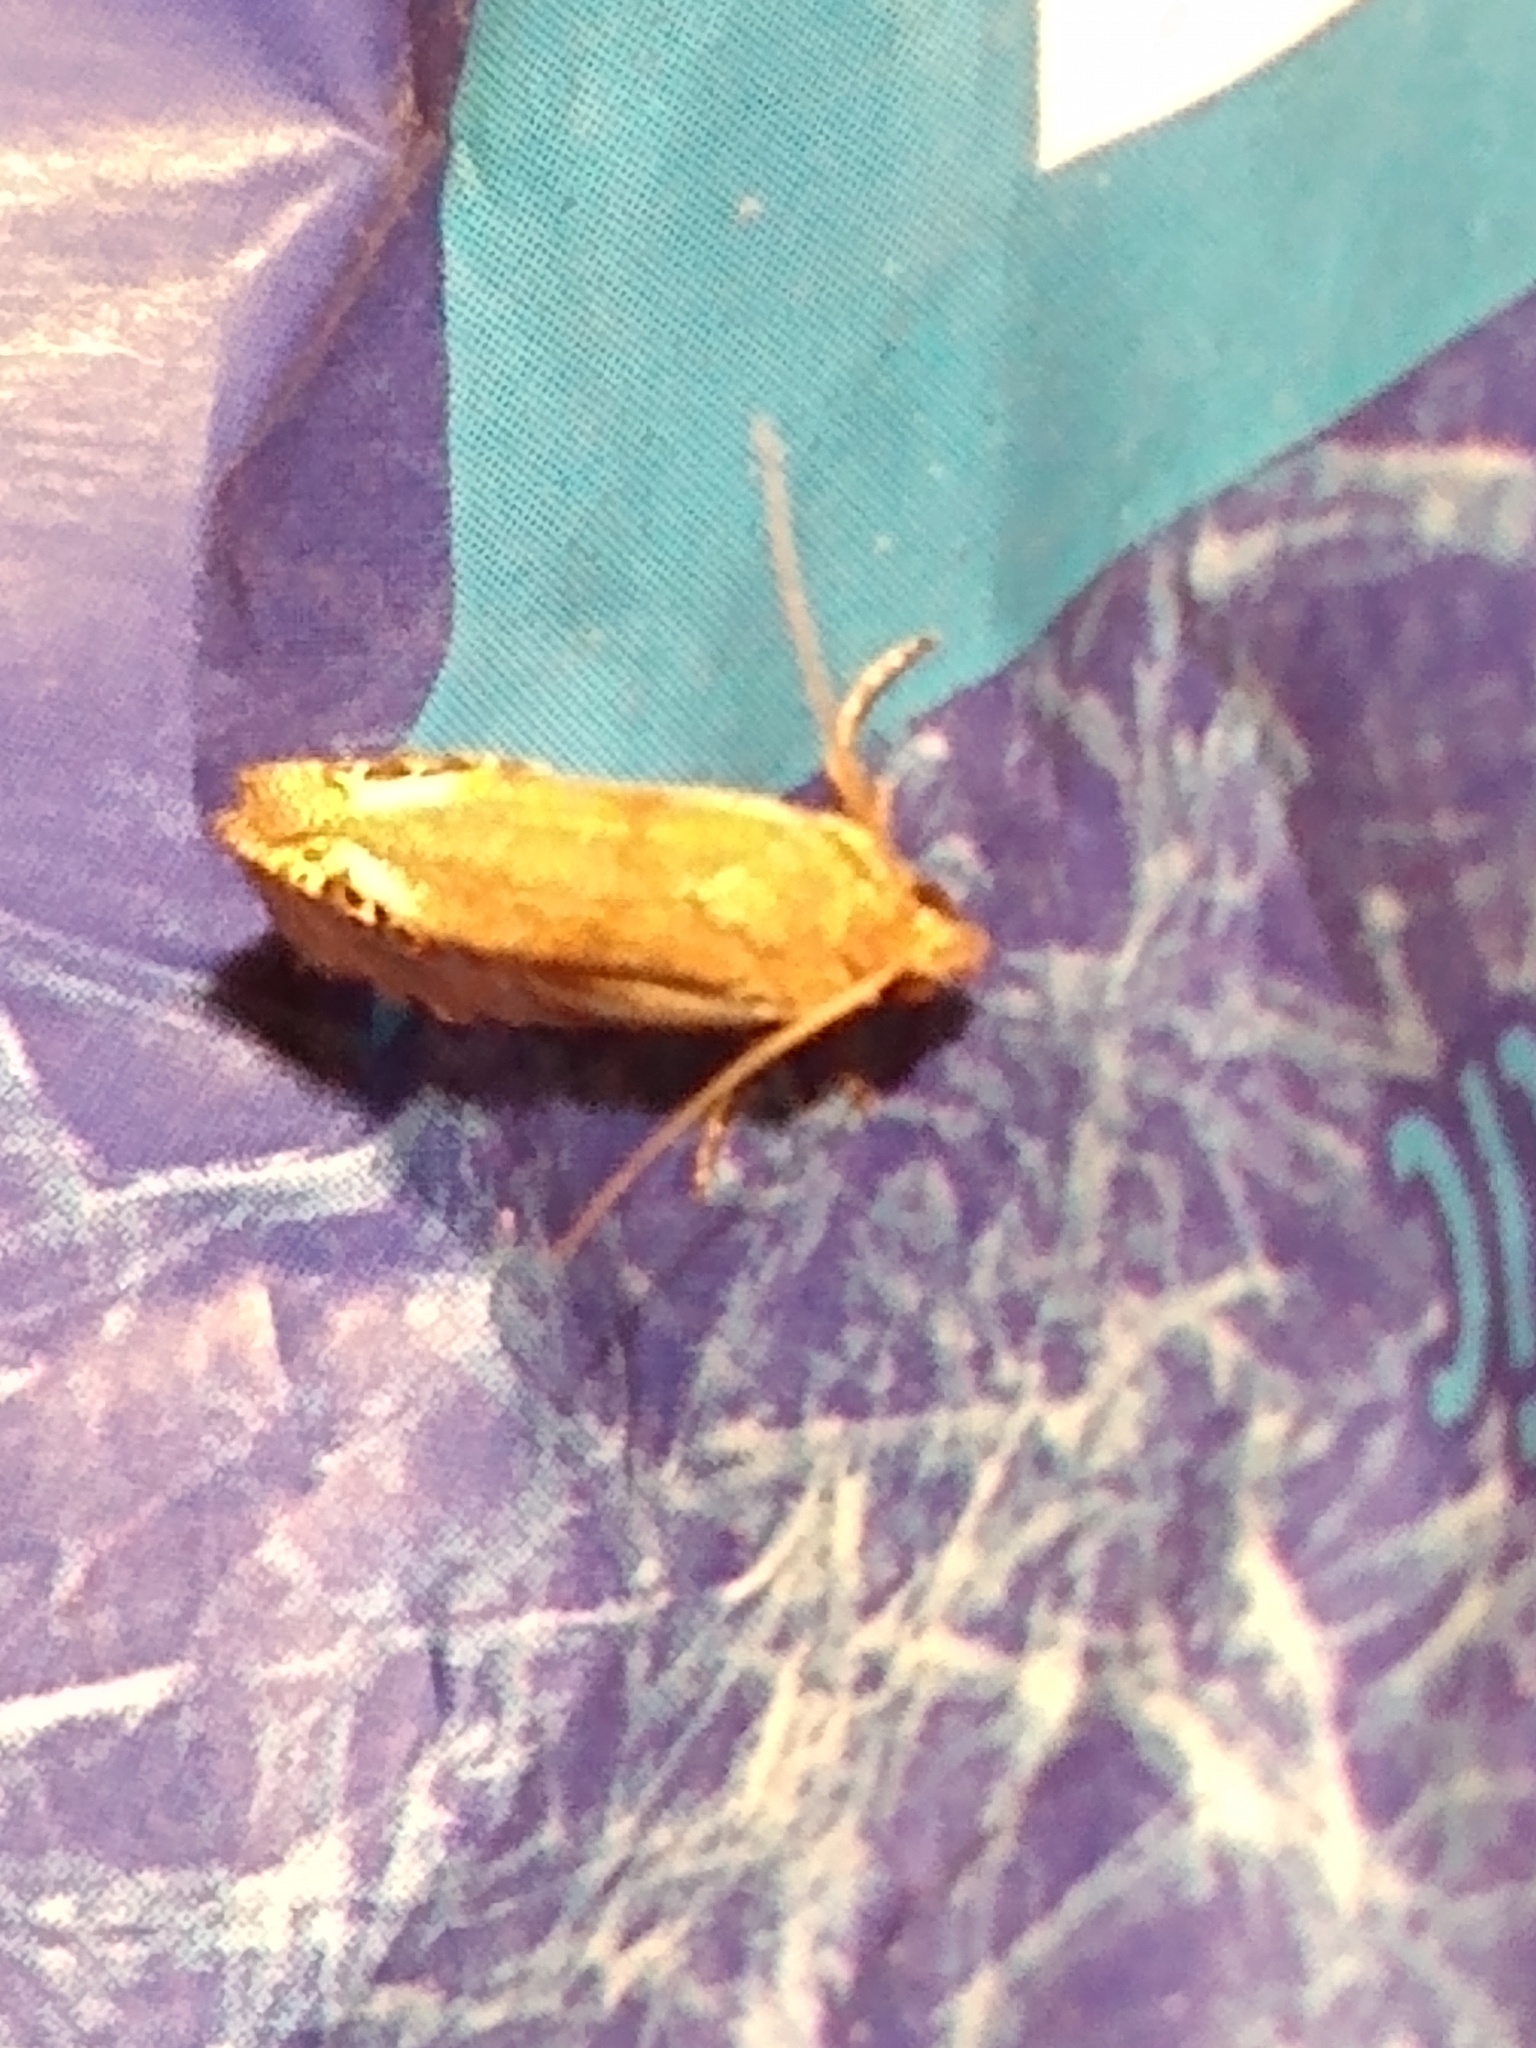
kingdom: Animalia
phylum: Arthropoda
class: Insecta
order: Lepidoptera
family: Tortricidae
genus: Pelochrista
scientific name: Pelochrista scintillana
